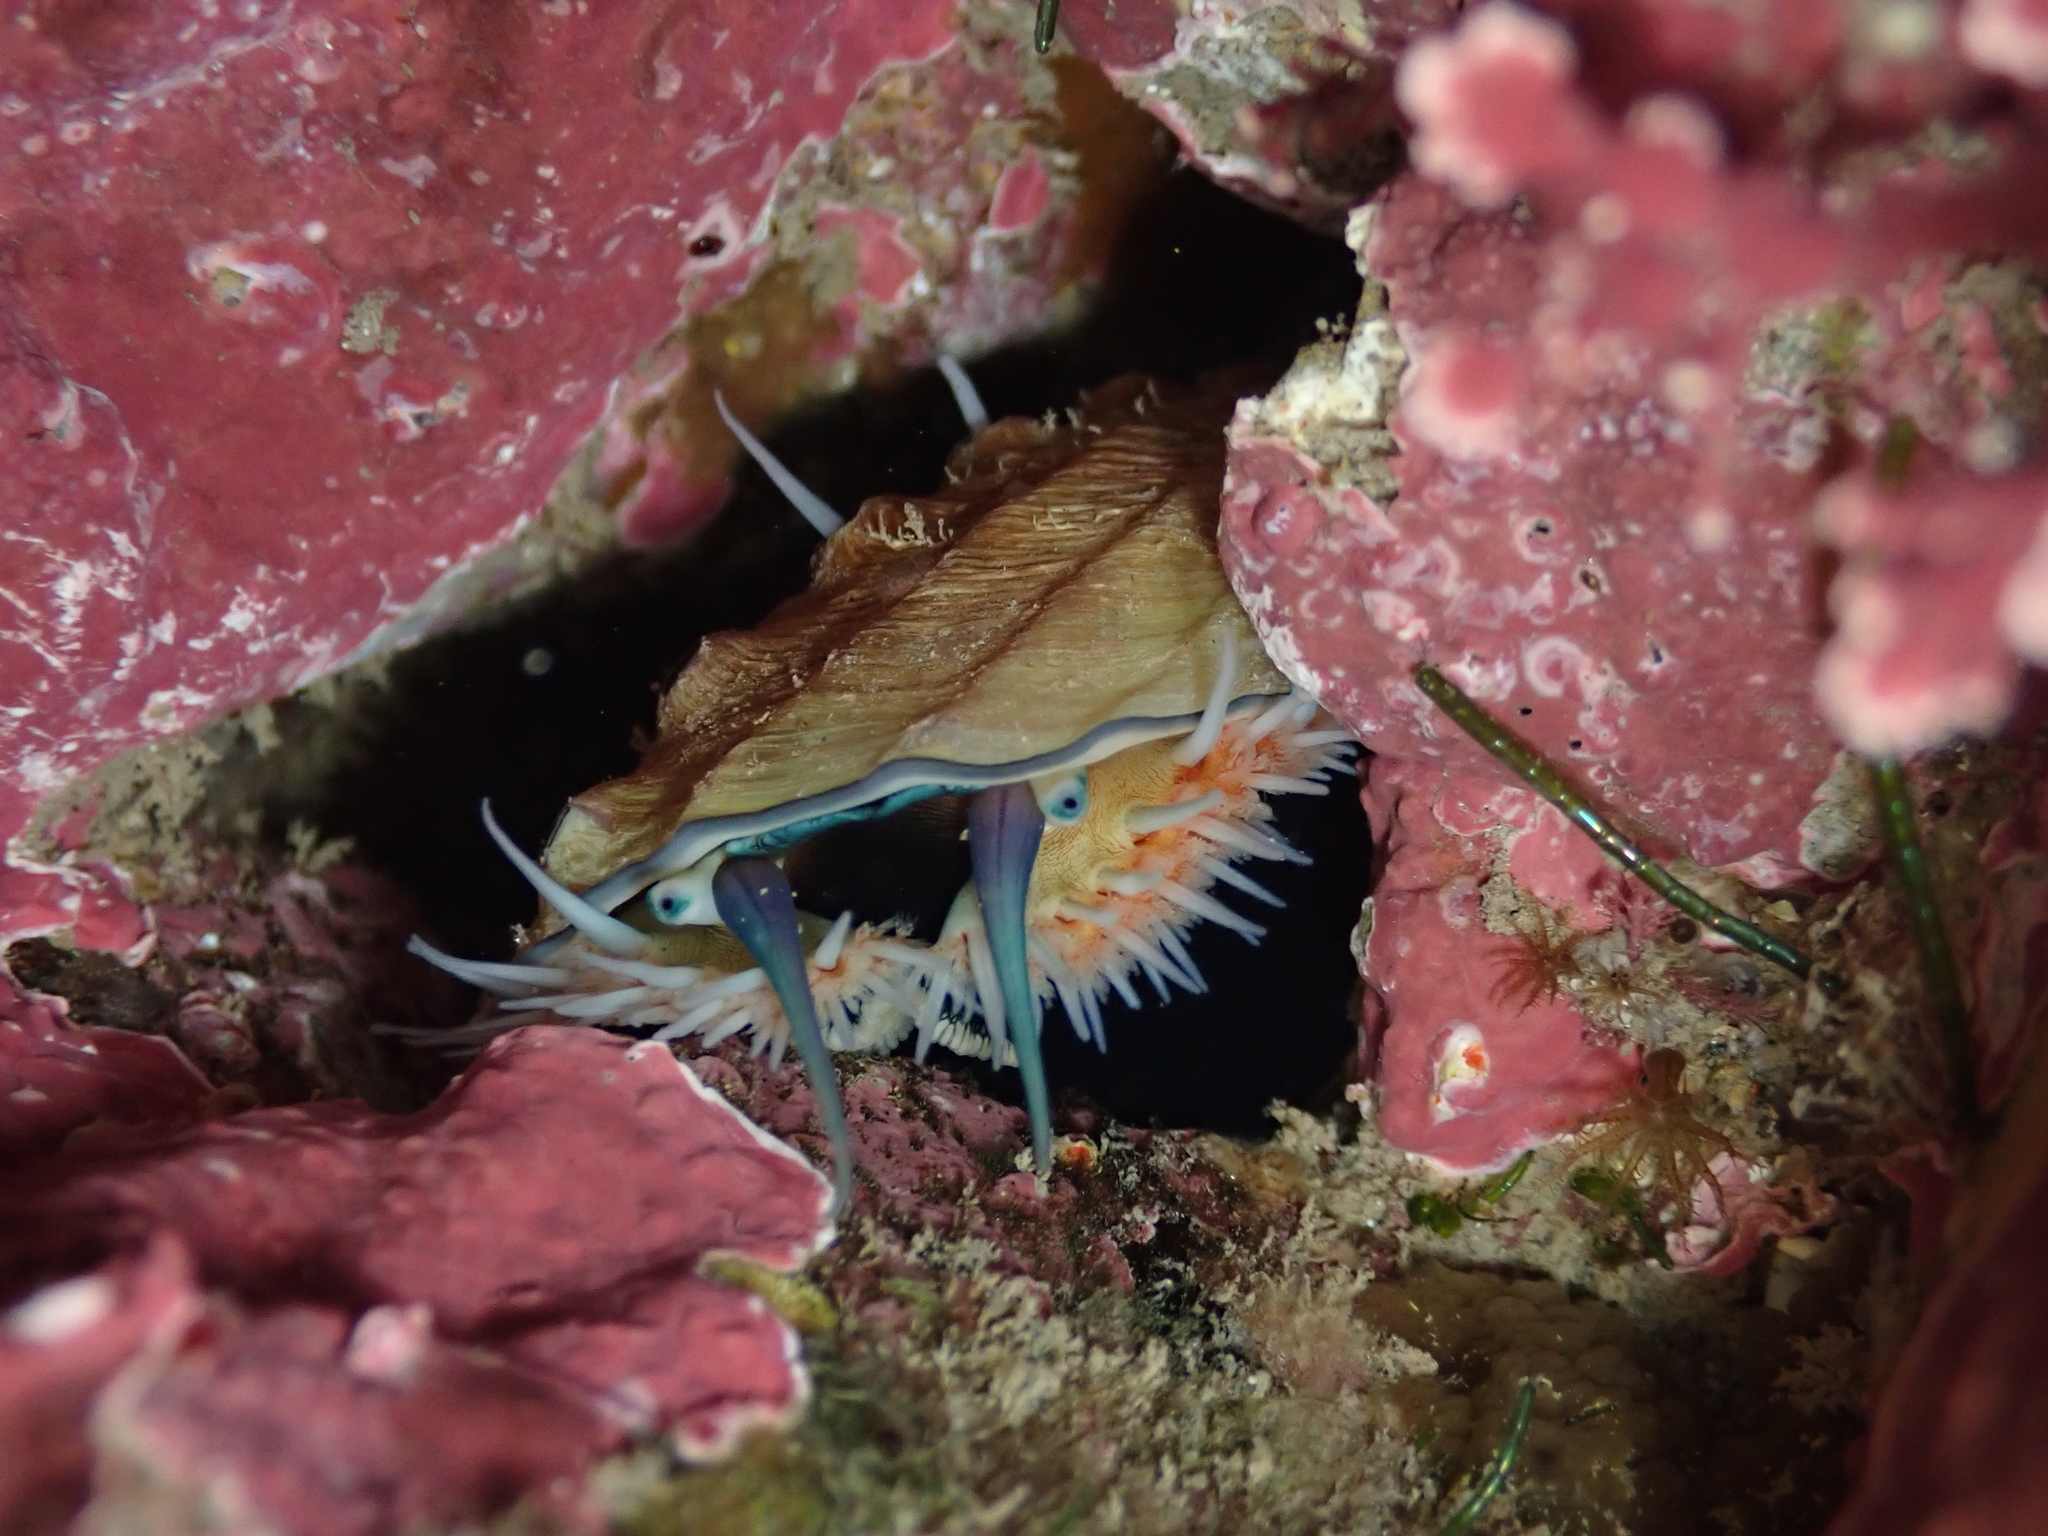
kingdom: Animalia
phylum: Mollusca
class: Gastropoda
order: Lepetellida
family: Haliotidae
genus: Haliotis
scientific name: Haliotis australis
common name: Silver abalone
